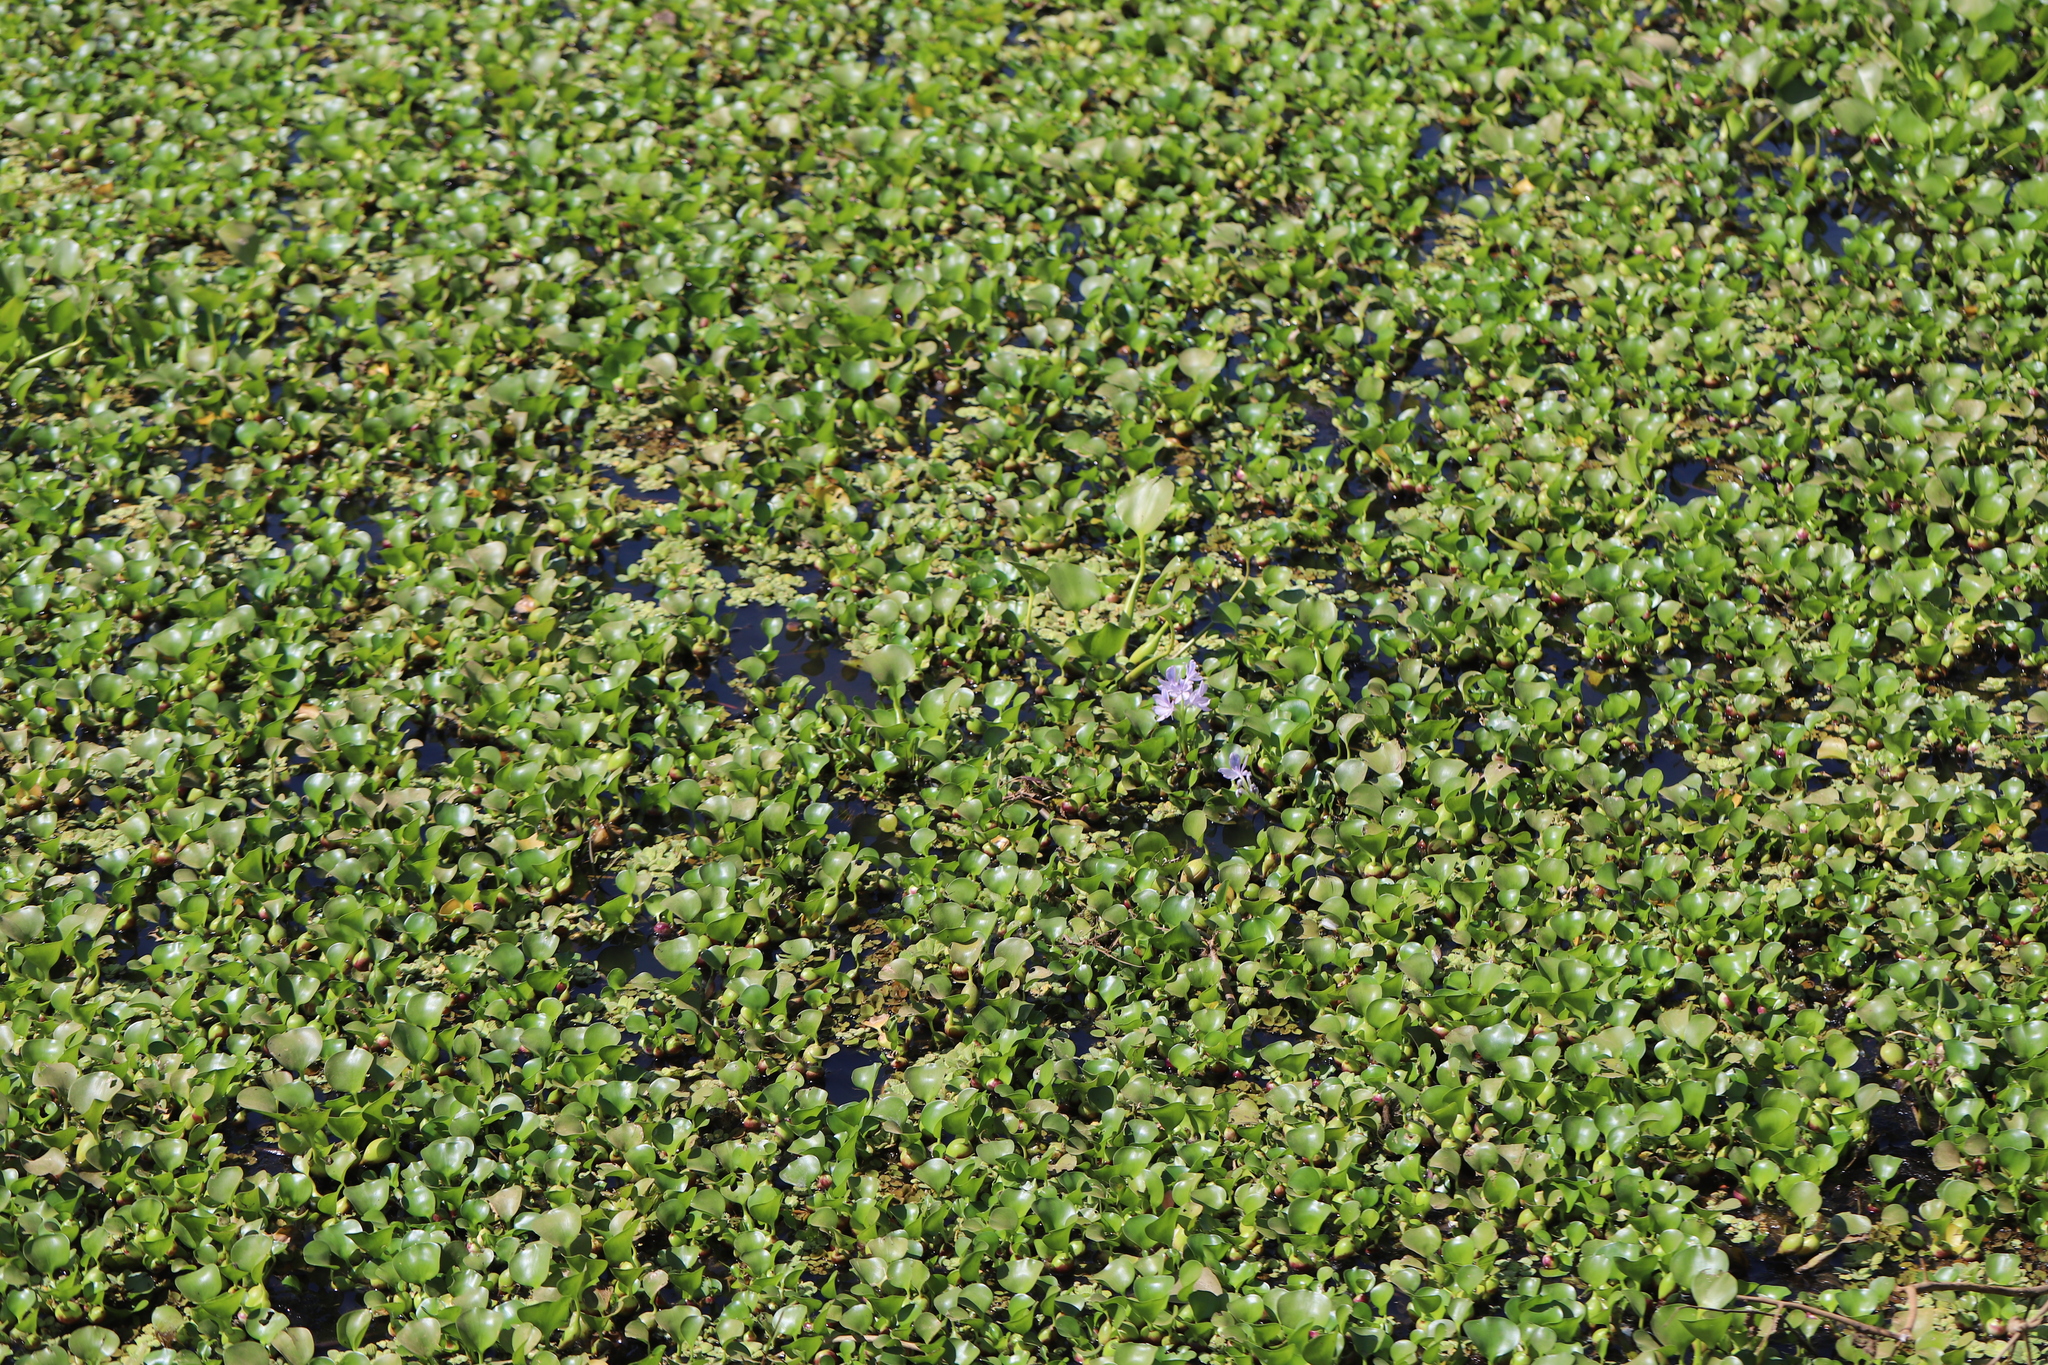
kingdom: Plantae
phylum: Tracheophyta
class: Liliopsida
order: Commelinales
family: Pontederiaceae
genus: Pontederia
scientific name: Pontederia crassipes
